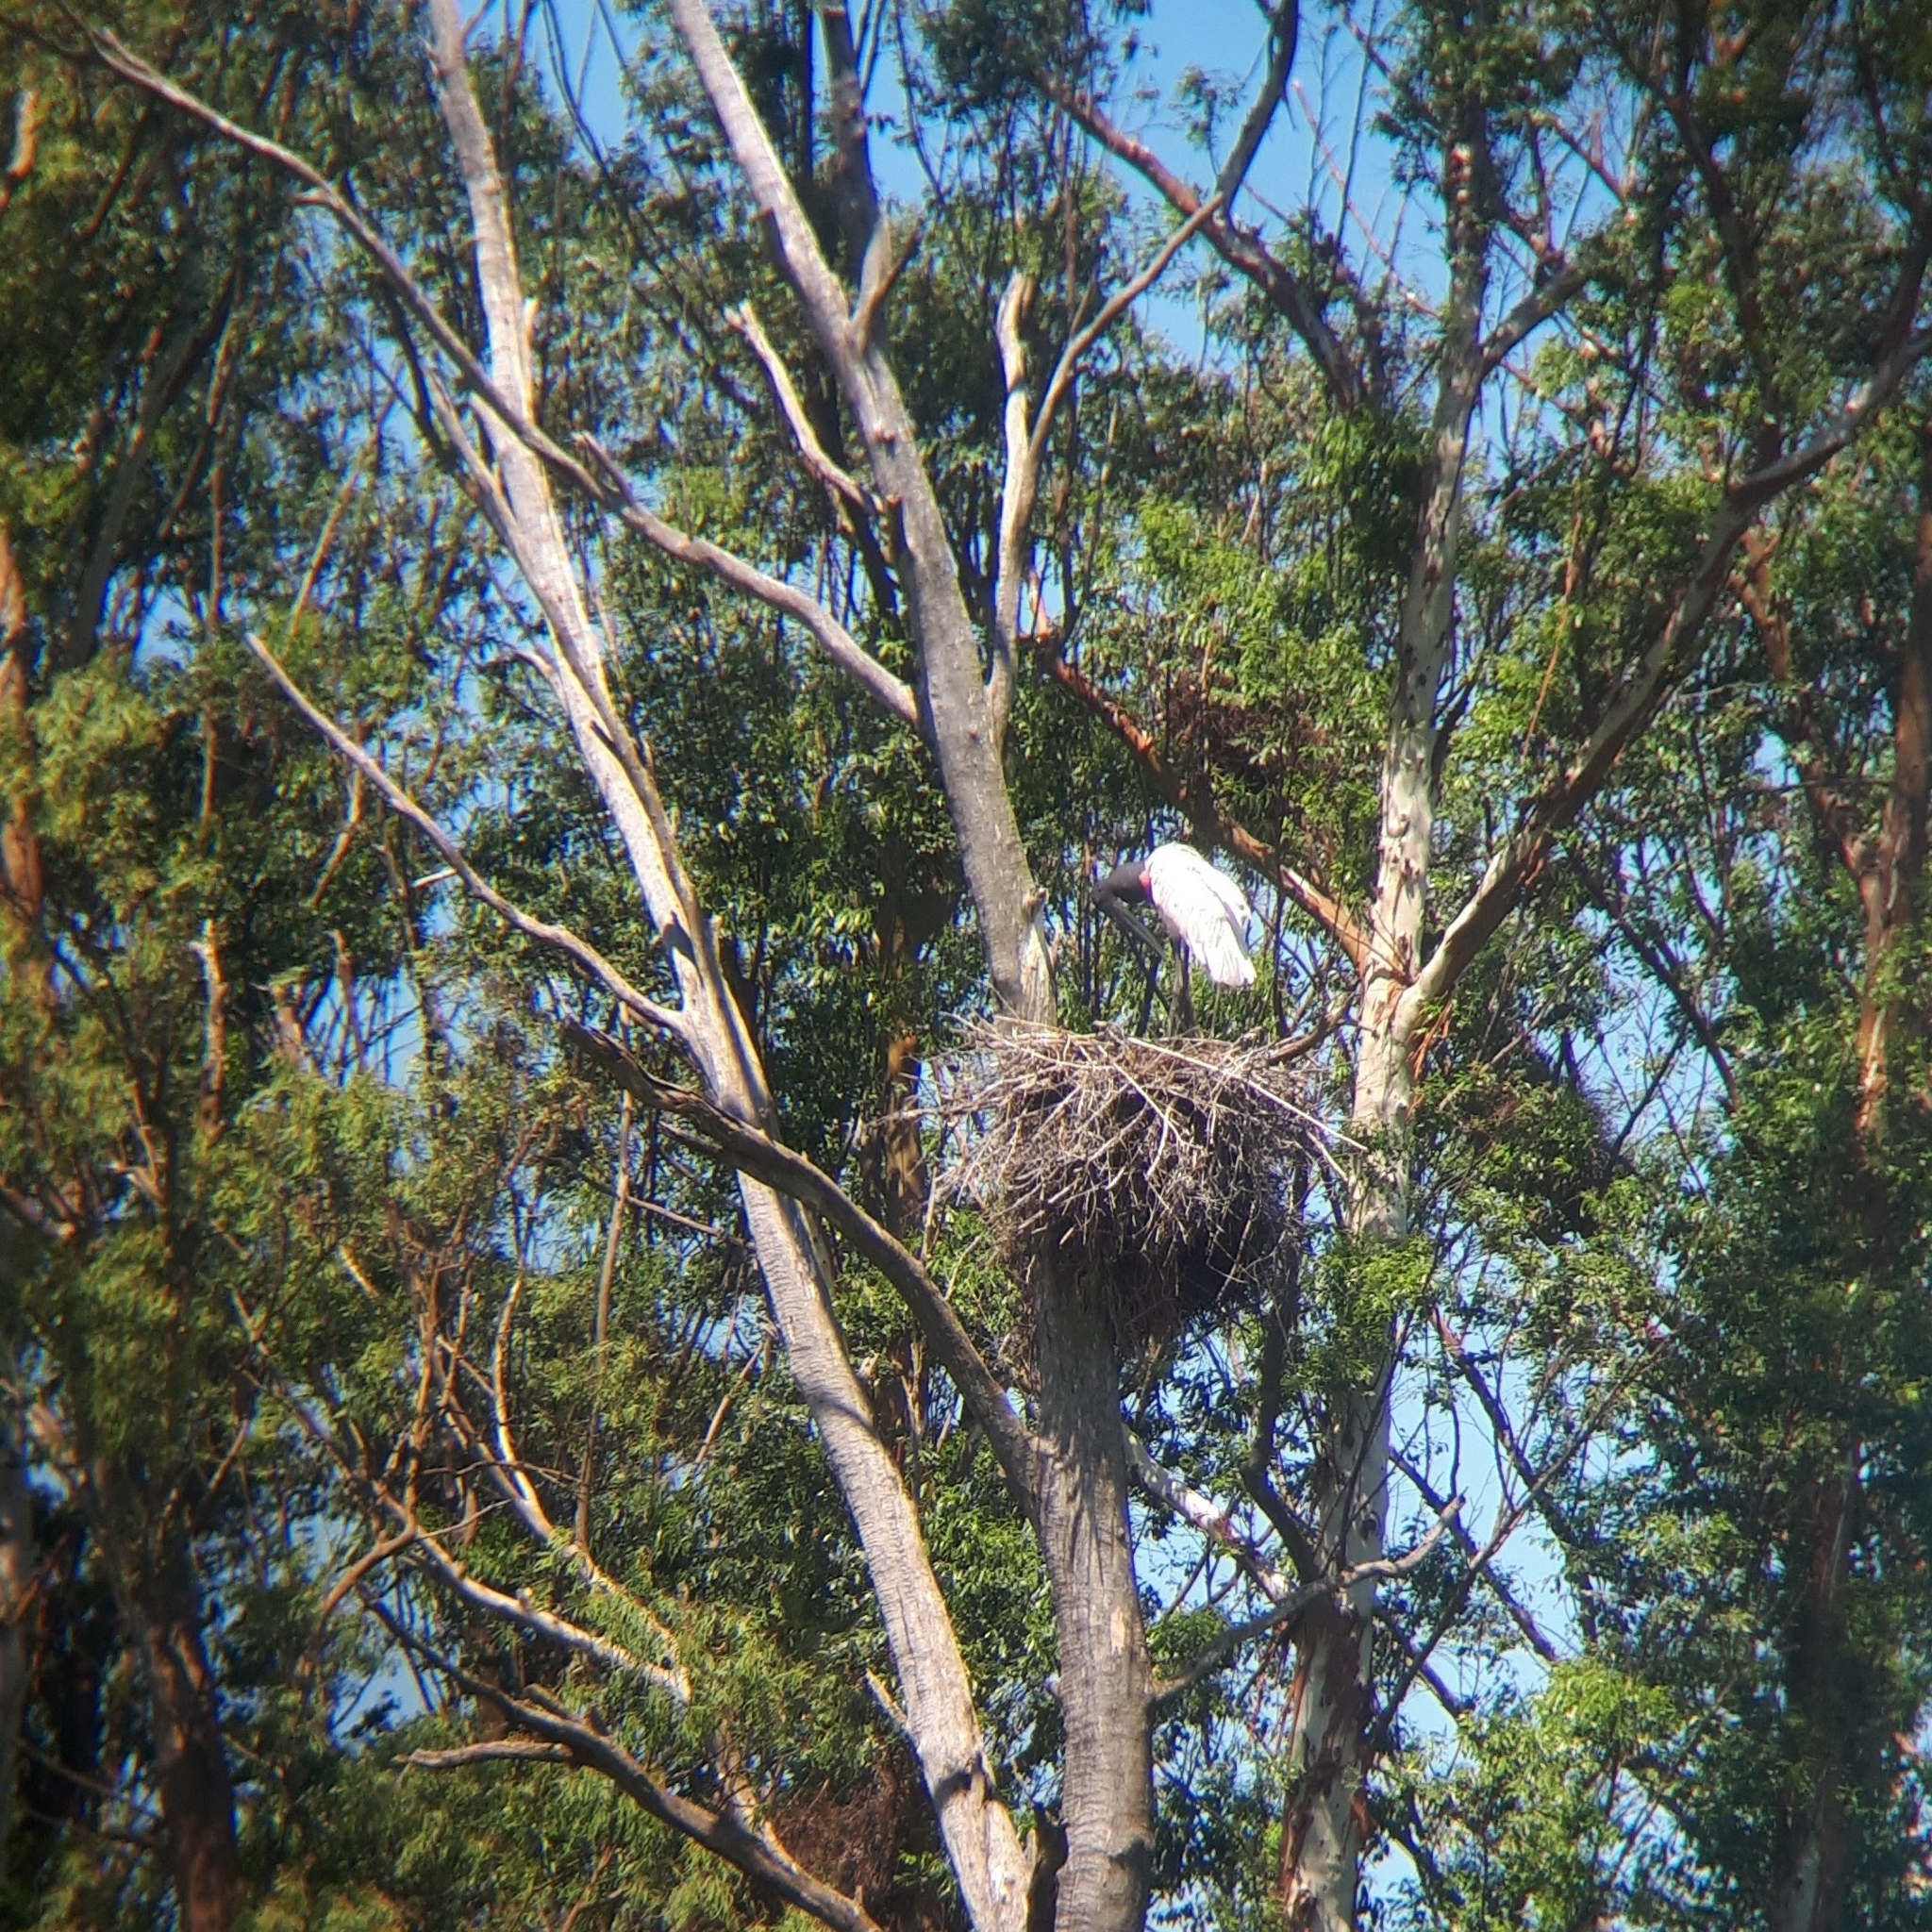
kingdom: Animalia
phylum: Chordata
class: Aves
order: Ciconiiformes
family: Ciconiidae
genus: Jabiru
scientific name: Jabiru mycteria
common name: Jabiru
